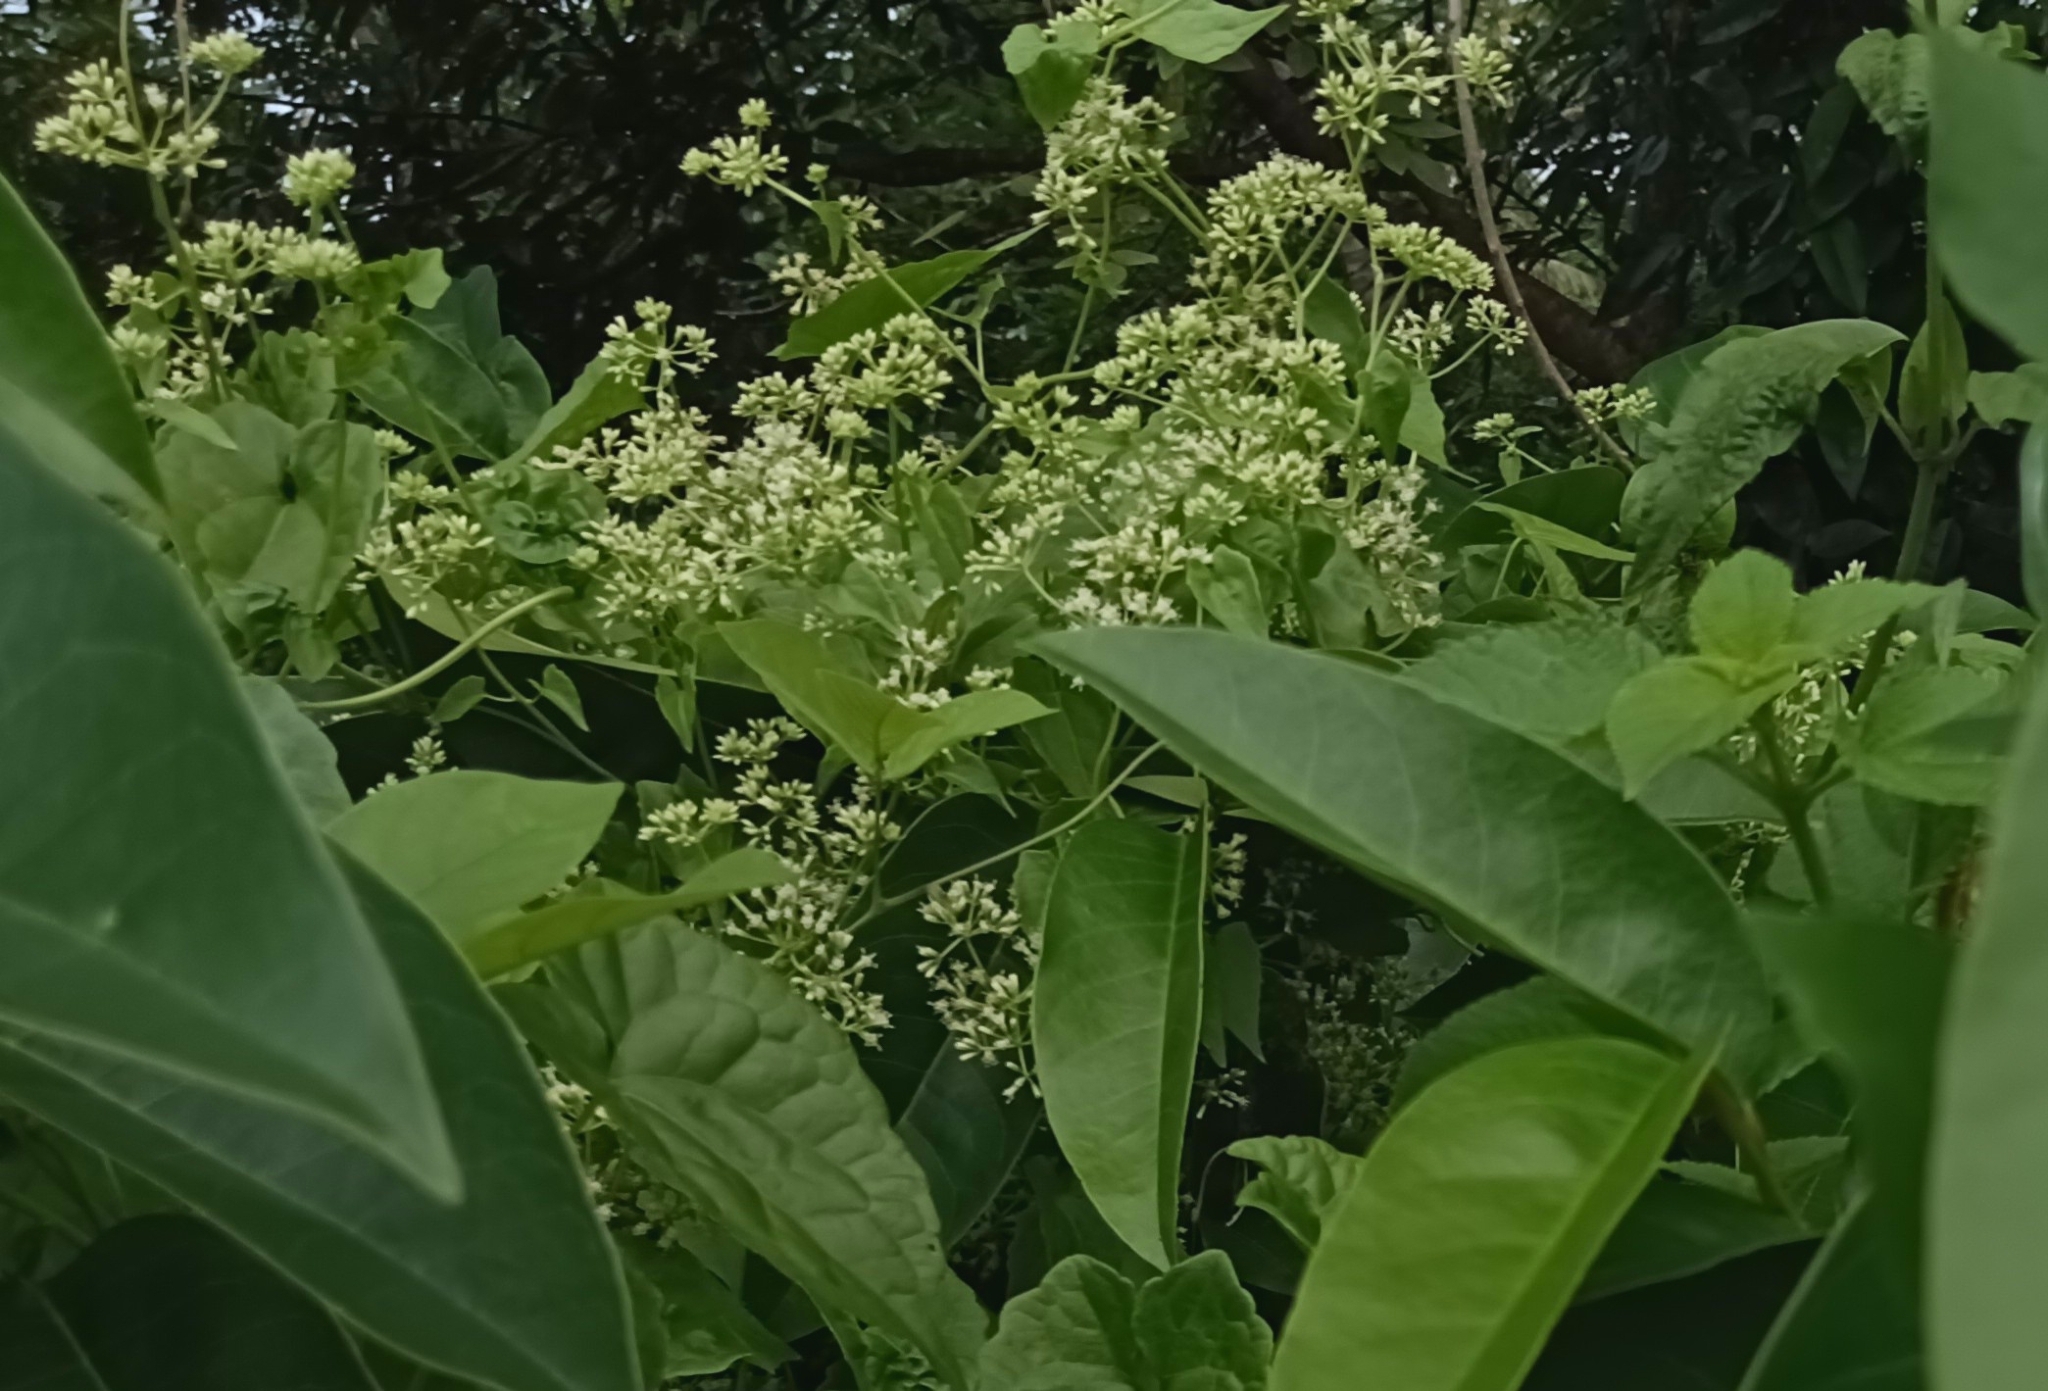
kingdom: Plantae
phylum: Tracheophyta
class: Magnoliopsida
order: Asterales
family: Asteraceae
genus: Mikania
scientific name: Mikania micrantha
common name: Mile-a-minute
